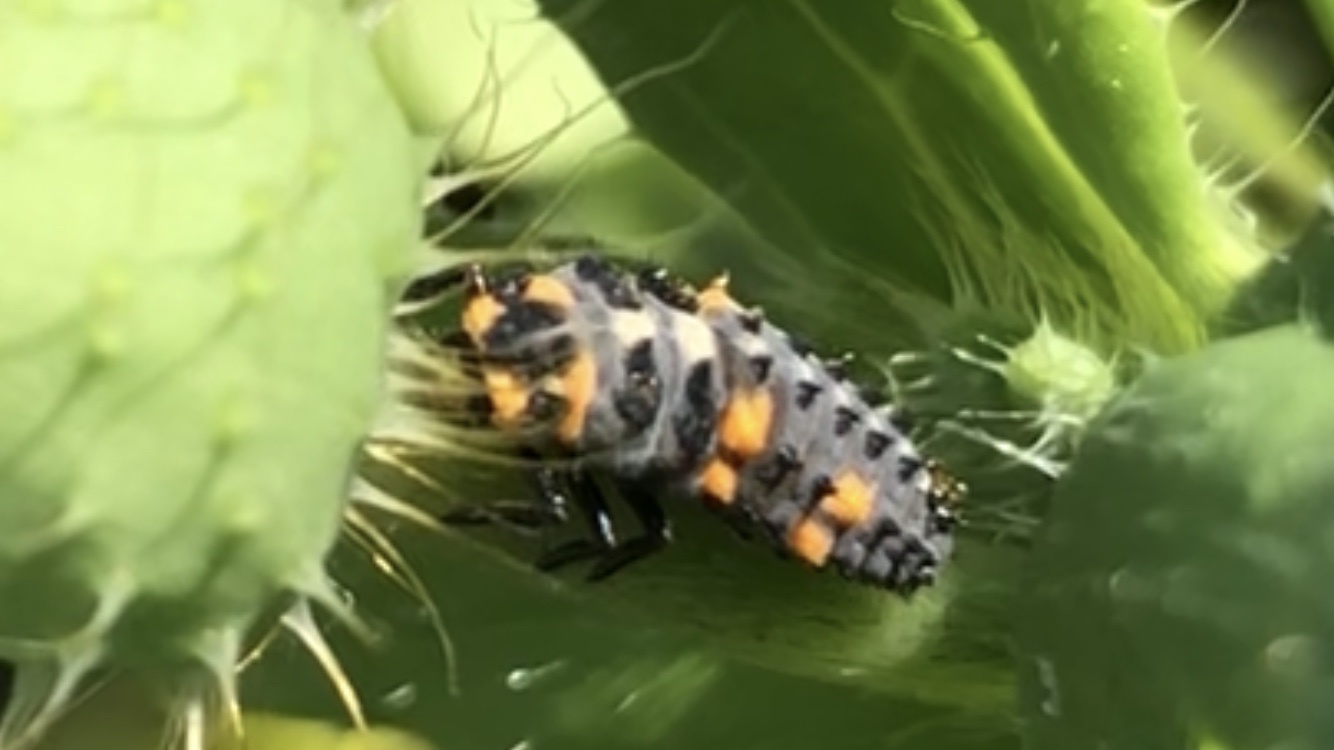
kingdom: Animalia
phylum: Arthropoda
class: Insecta
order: Coleoptera
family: Coccinellidae
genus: Coccinella
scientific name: Coccinella septempunctata
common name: Sevenspotted lady beetle
